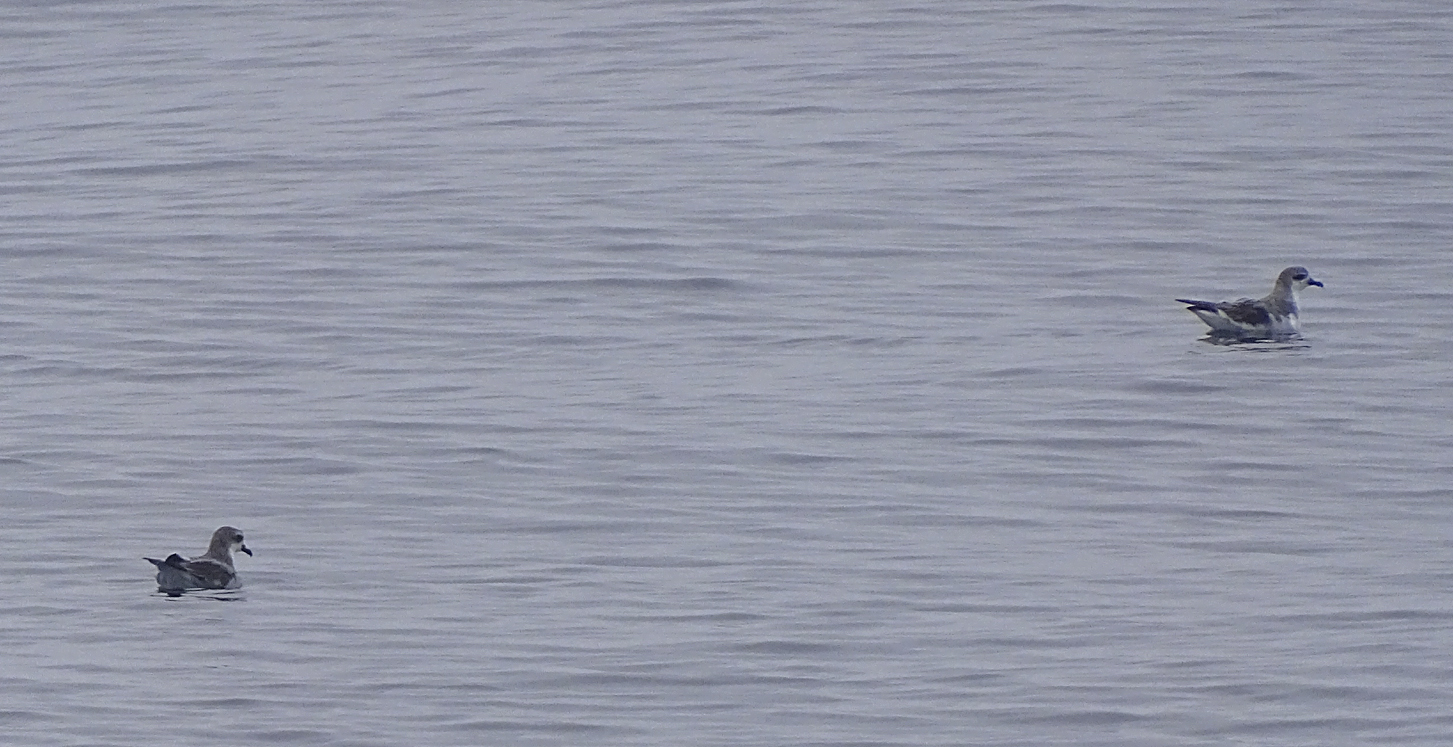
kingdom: Animalia
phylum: Chordata
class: Aves
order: Procellariiformes
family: Procellariidae
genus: Pterodroma
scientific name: Pterodroma cookii
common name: Cook's petrel
